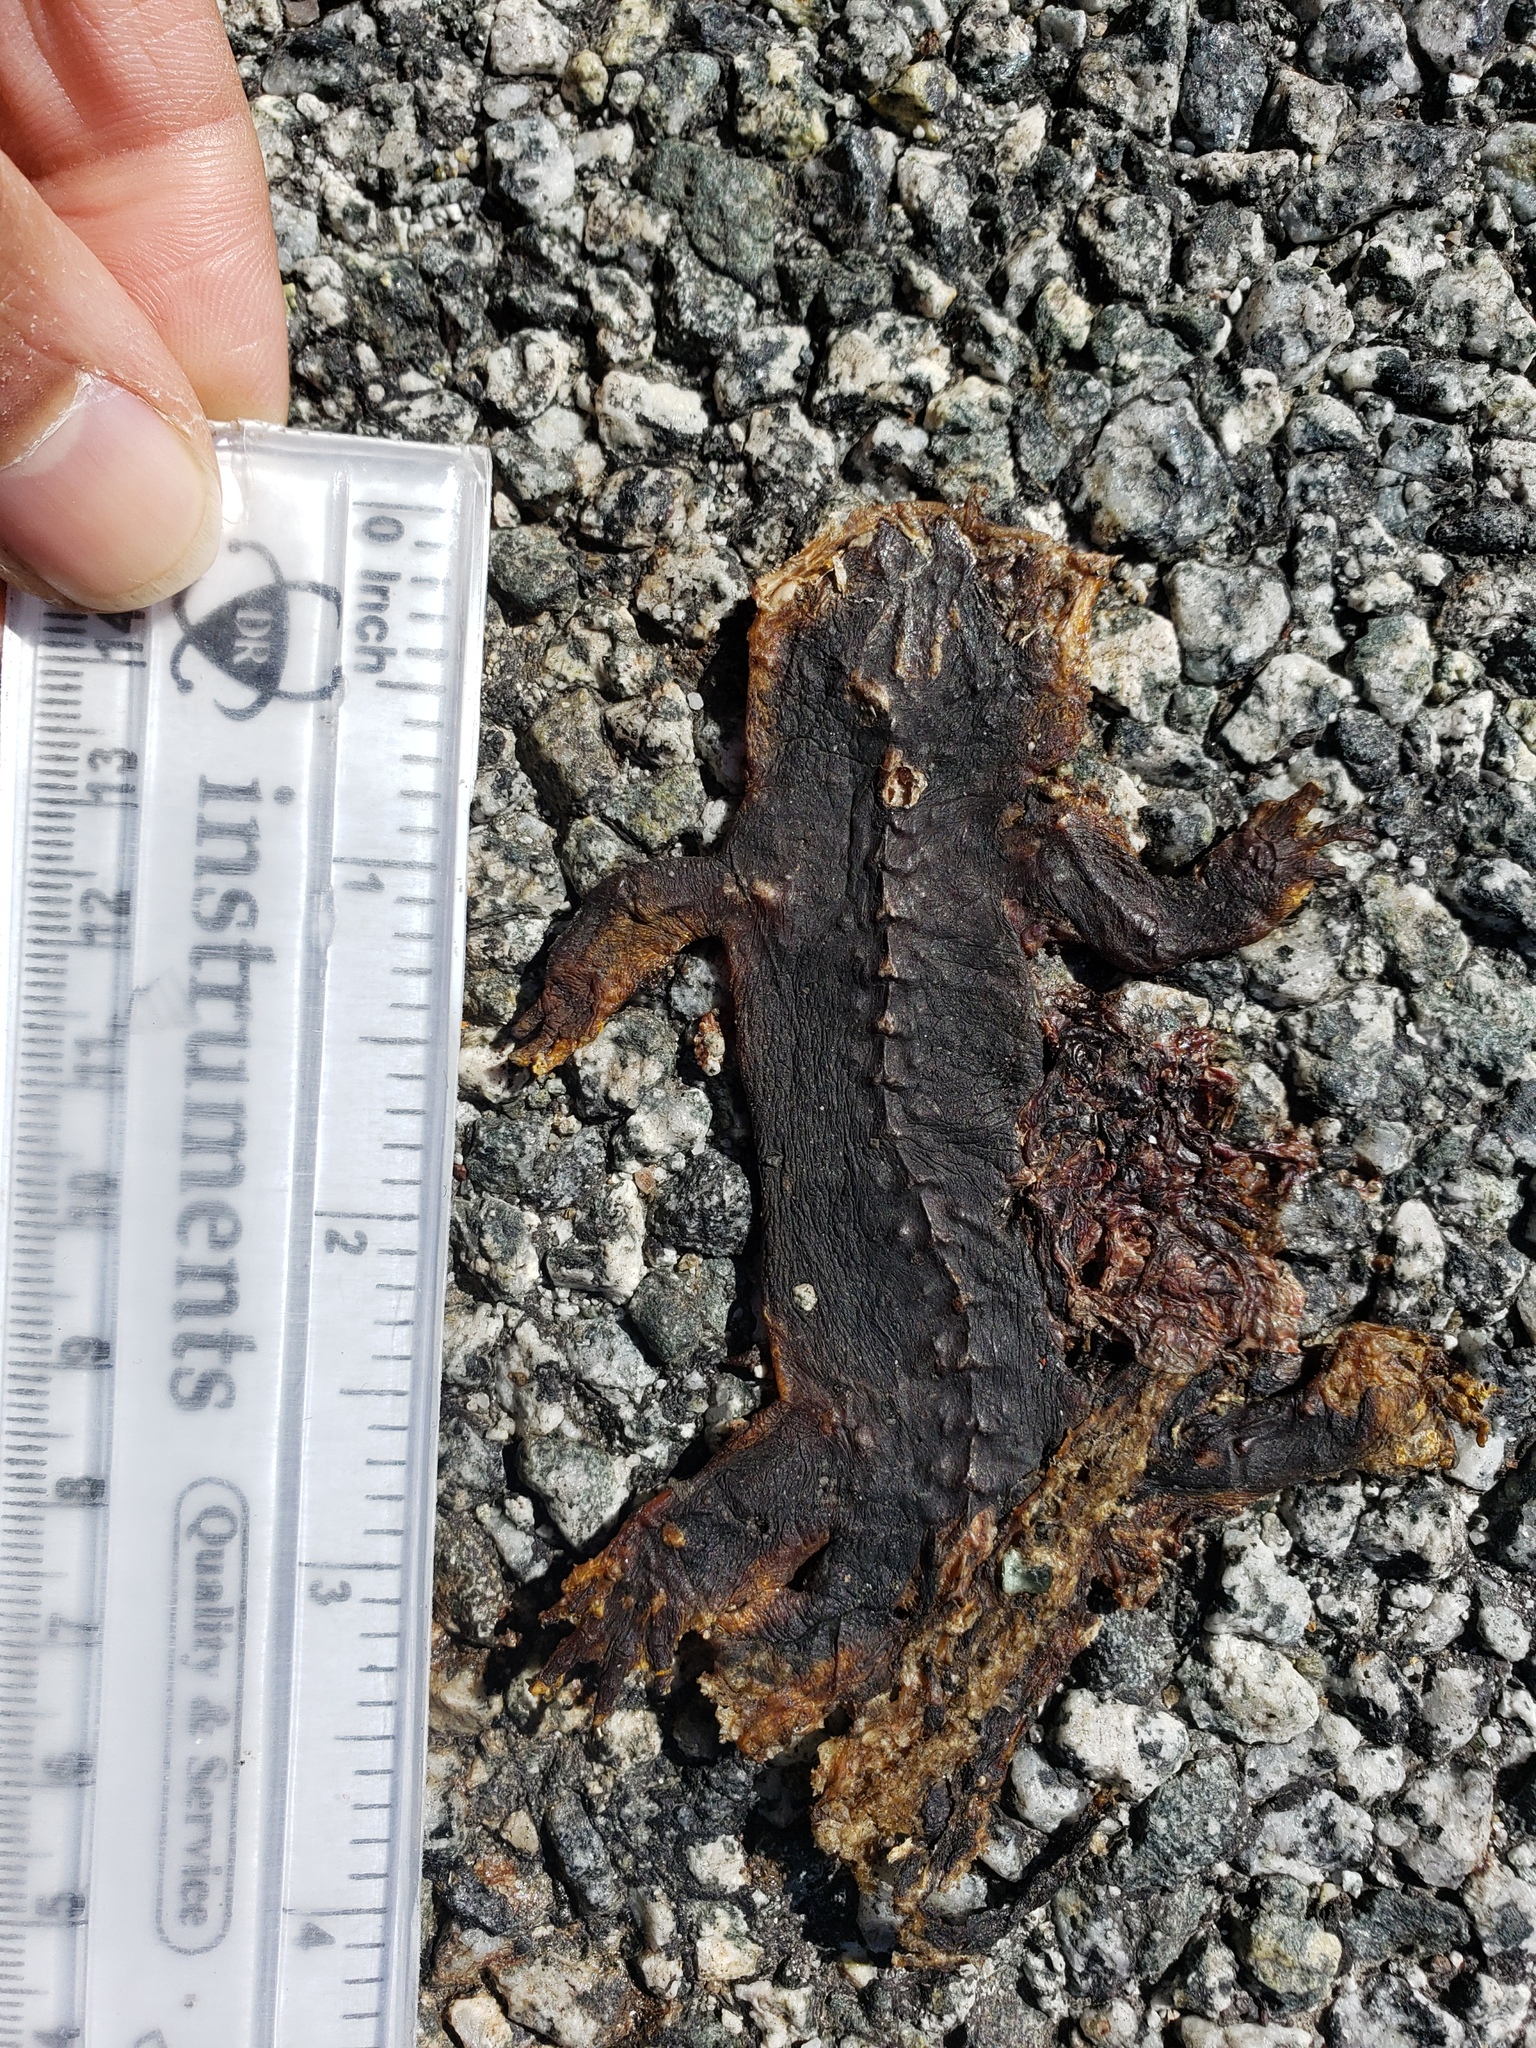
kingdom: Animalia
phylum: Chordata
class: Amphibia
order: Caudata
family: Salamandridae
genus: Taricha
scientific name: Taricha
